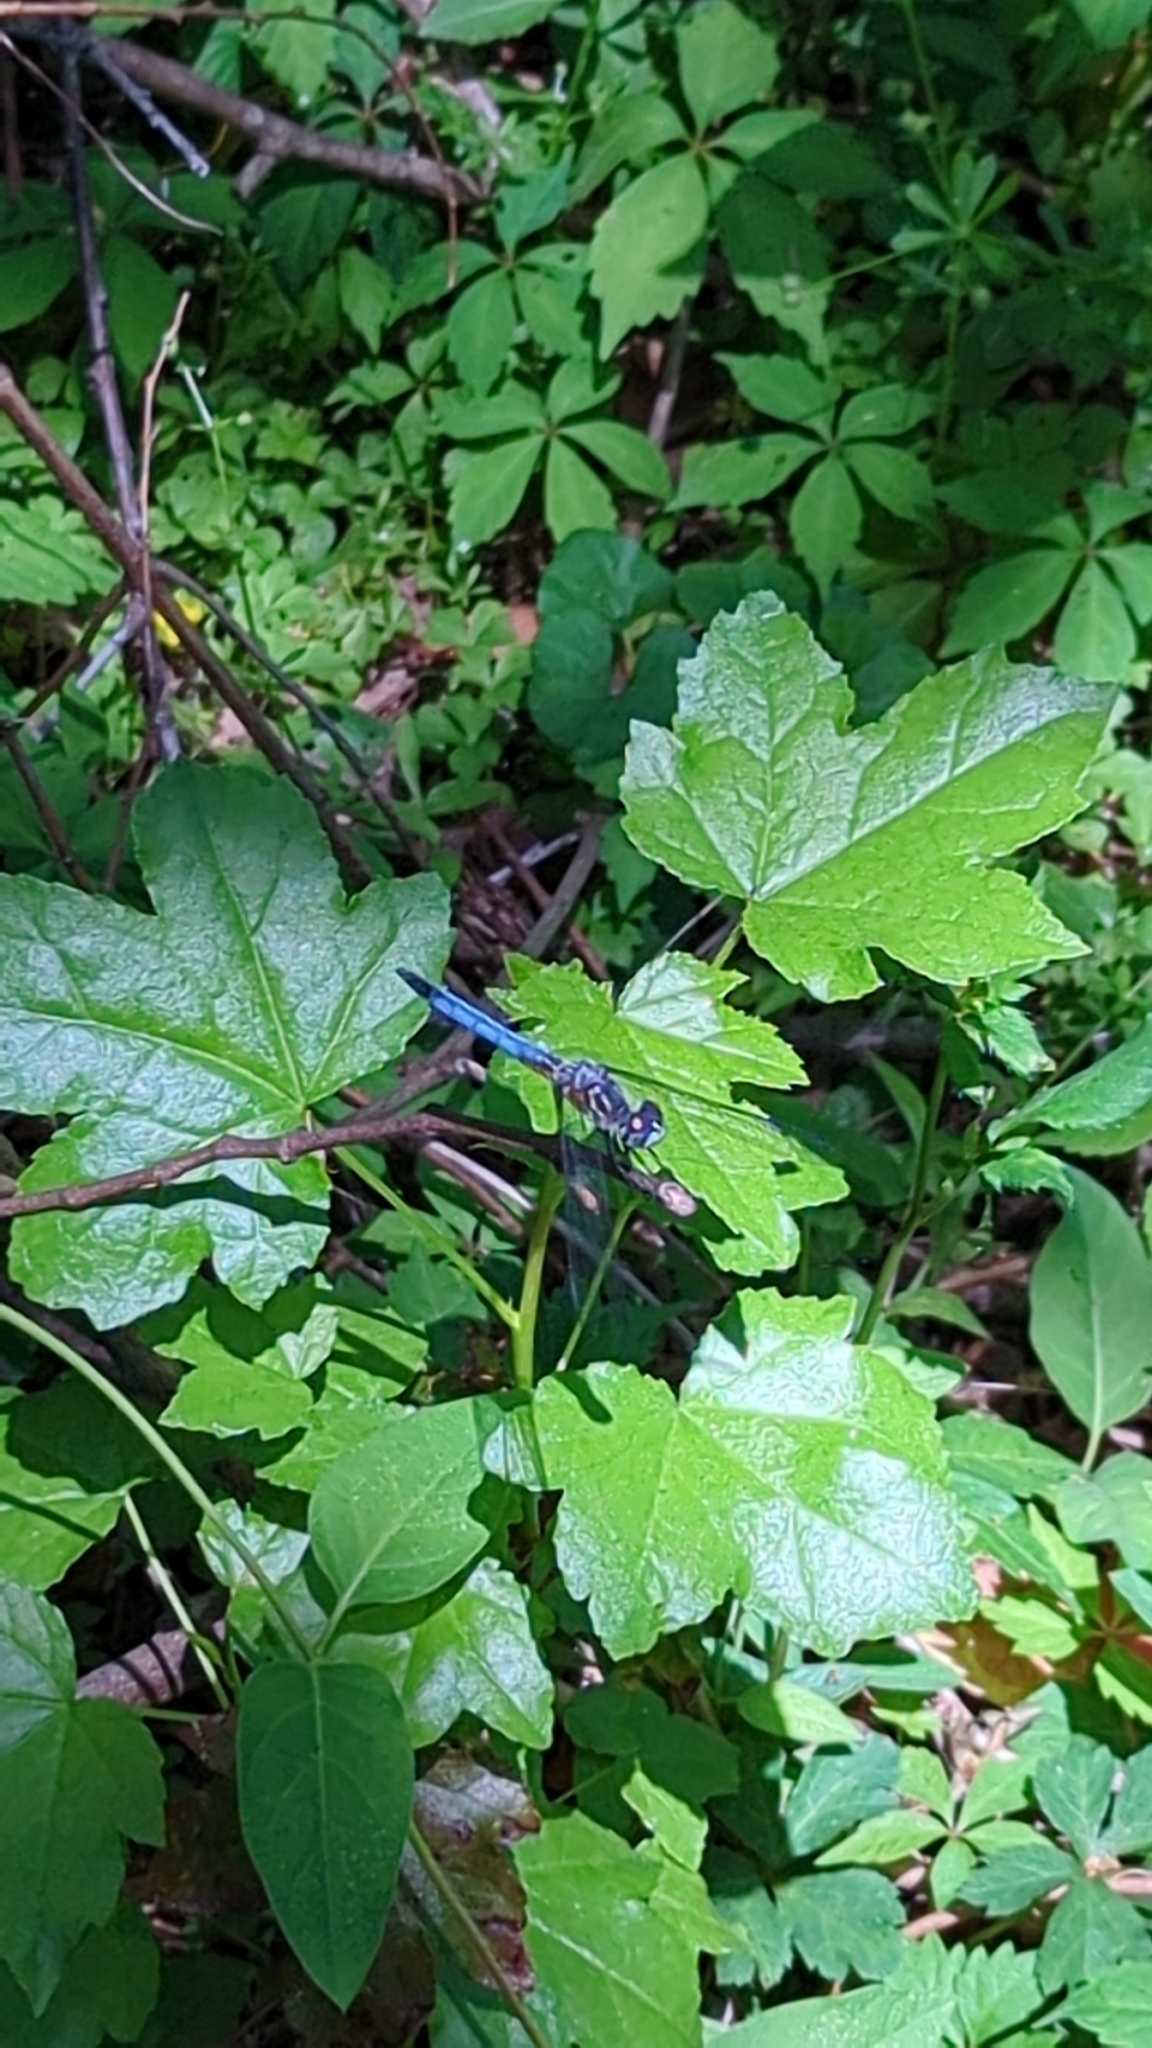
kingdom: Animalia
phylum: Arthropoda
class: Insecta
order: Odonata
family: Libellulidae
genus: Pachydiplax
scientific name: Pachydiplax longipennis
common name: Blue dasher
